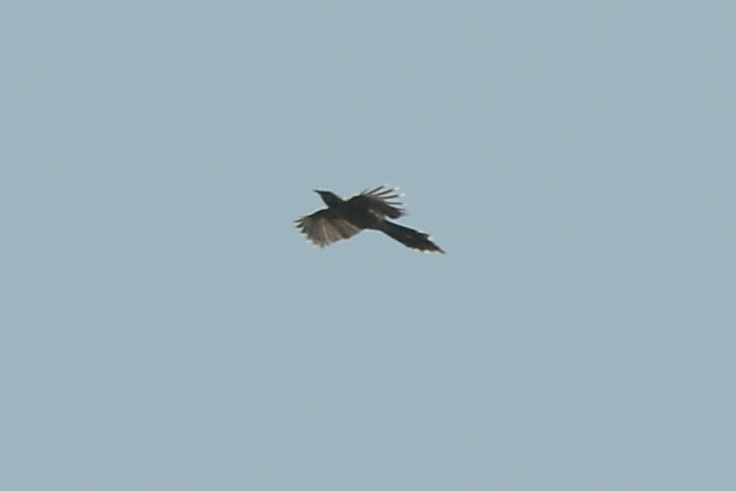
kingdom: Animalia
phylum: Chordata
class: Aves
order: Passeriformes
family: Meliphagidae
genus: Anthochaera
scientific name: Anthochaera paradoxa
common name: Yellow wattlebird
